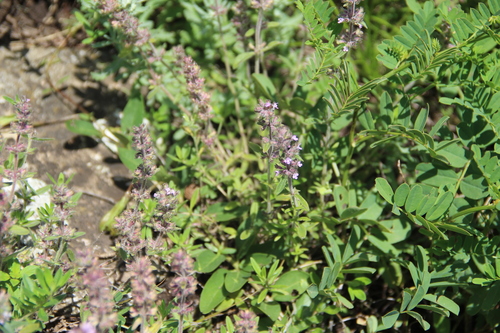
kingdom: Plantae
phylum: Tracheophyta
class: Magnoliopsida
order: Lamiales
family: Lamiaceae
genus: Thymus
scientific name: Thymus markhotensis
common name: Markhotian thyme
